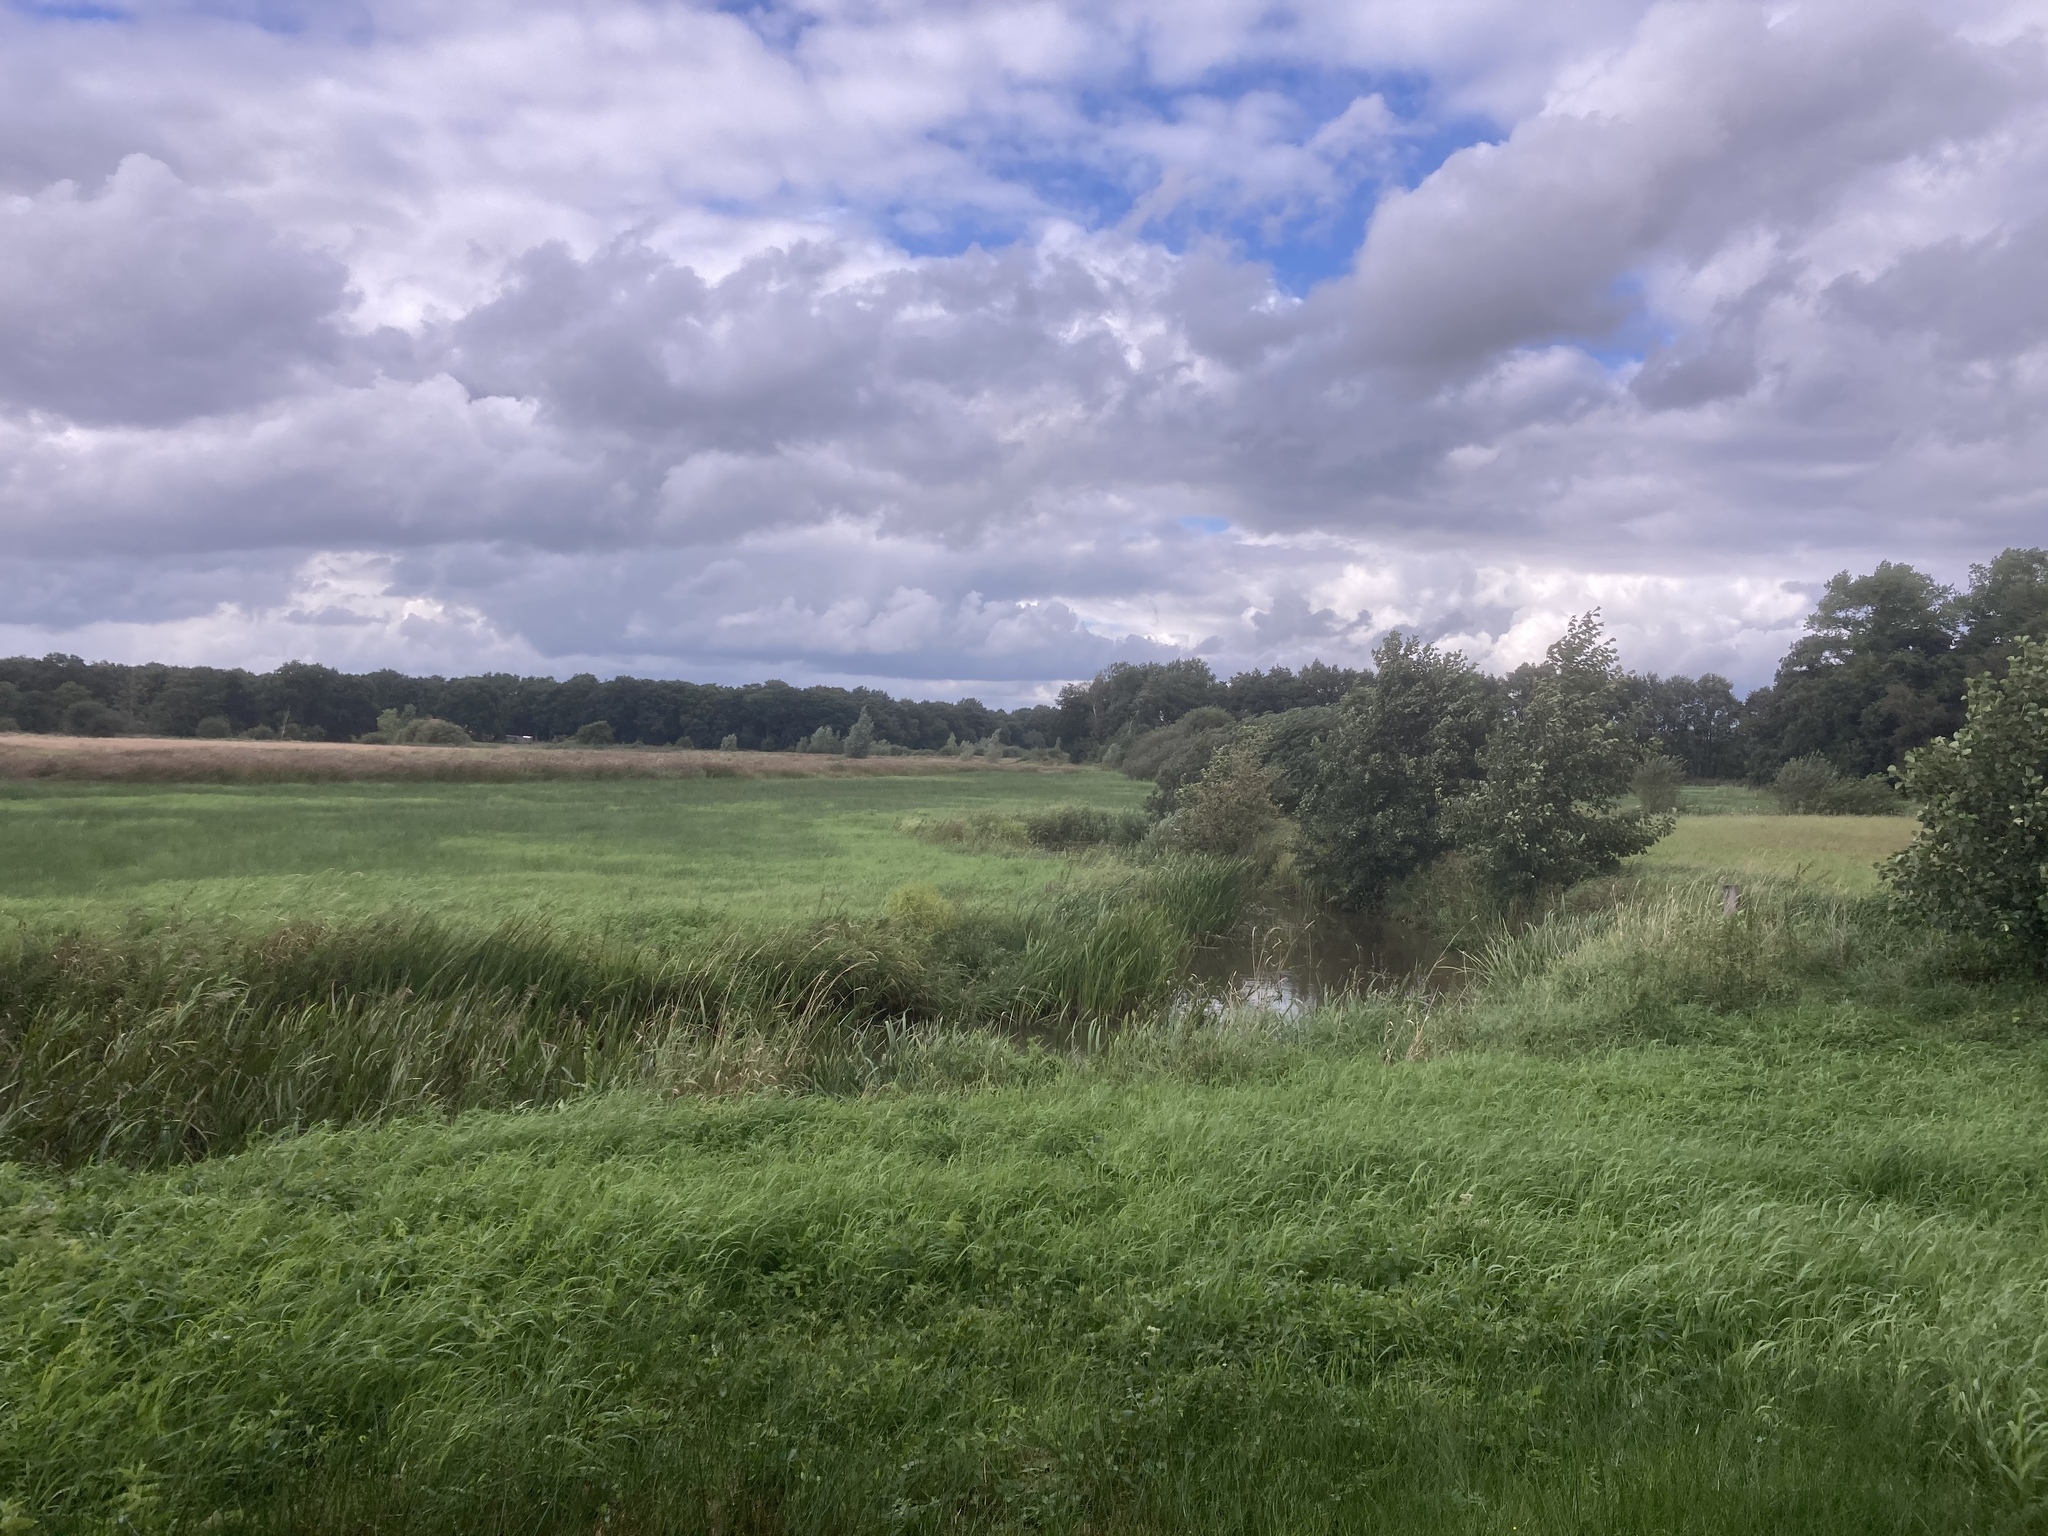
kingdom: Plantae
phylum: Tracheophyta
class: Liliopsida
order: Poales
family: Typhaceae
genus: Typha
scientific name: Typha latifolia
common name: Broadleaf cattail
